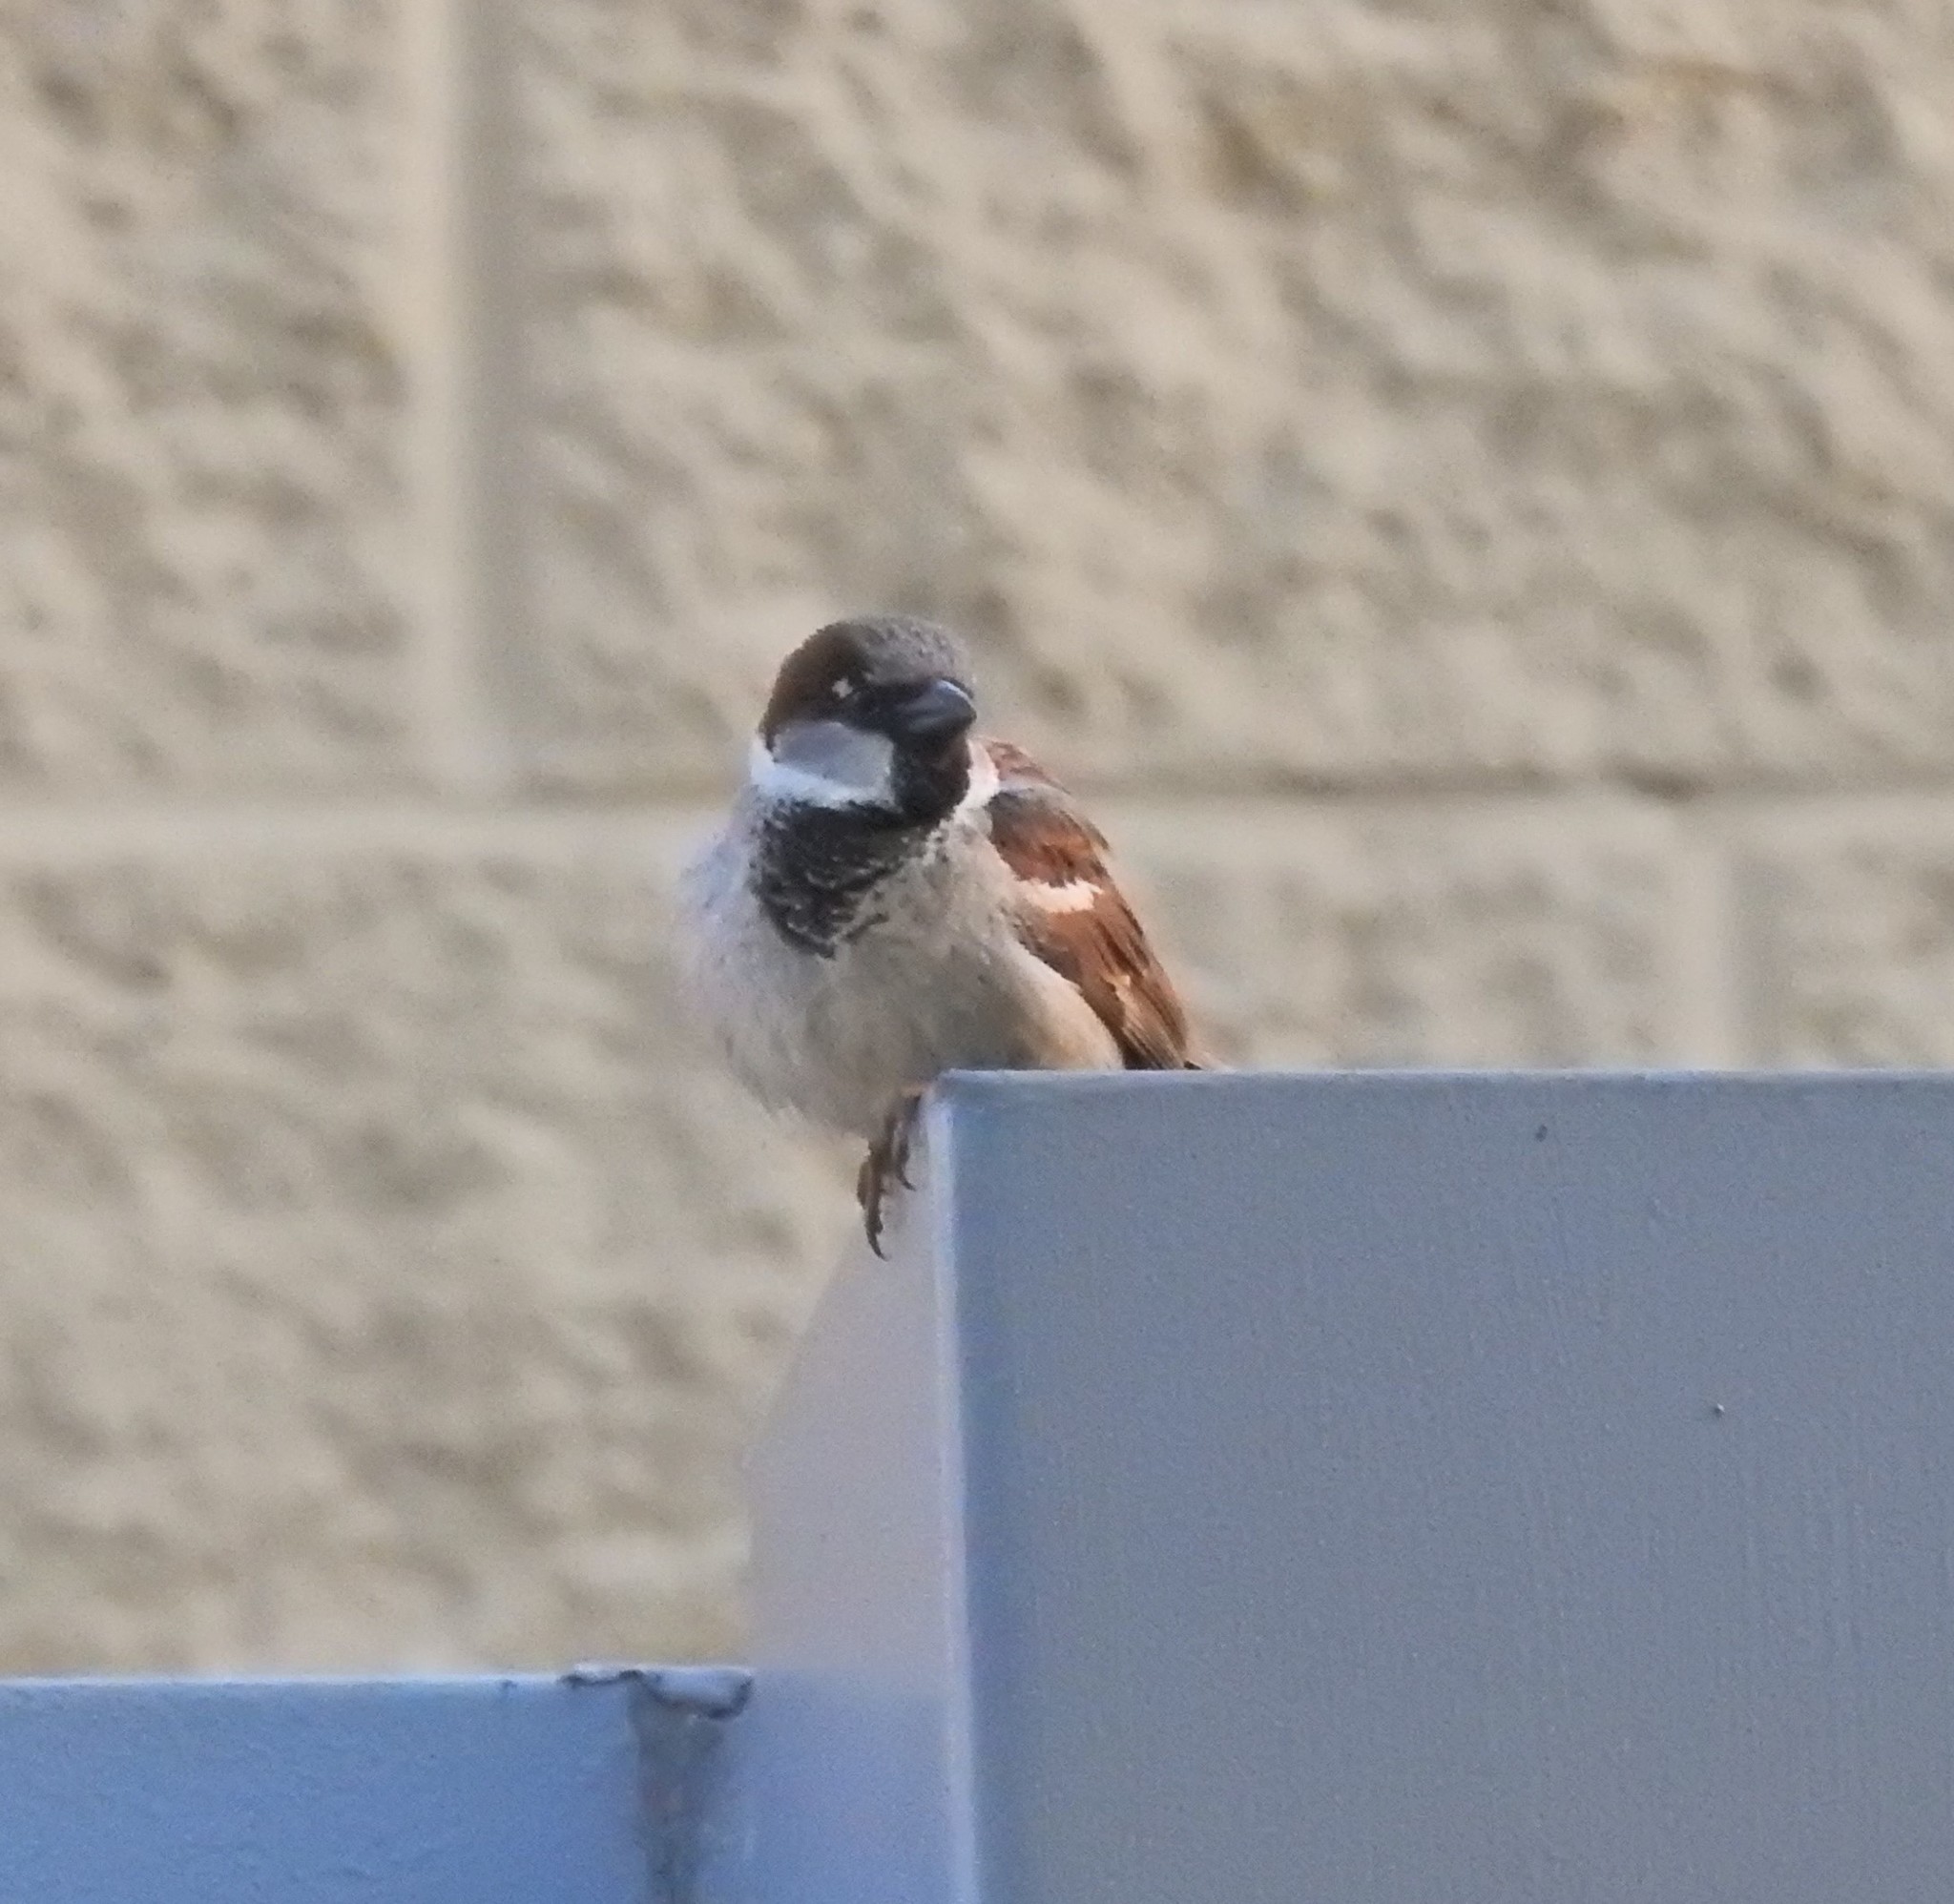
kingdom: Animalia
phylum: Chordata
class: Aves
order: Passeriformes
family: Passeridae
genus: Passer
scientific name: Passer domesticus
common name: House sparrow
